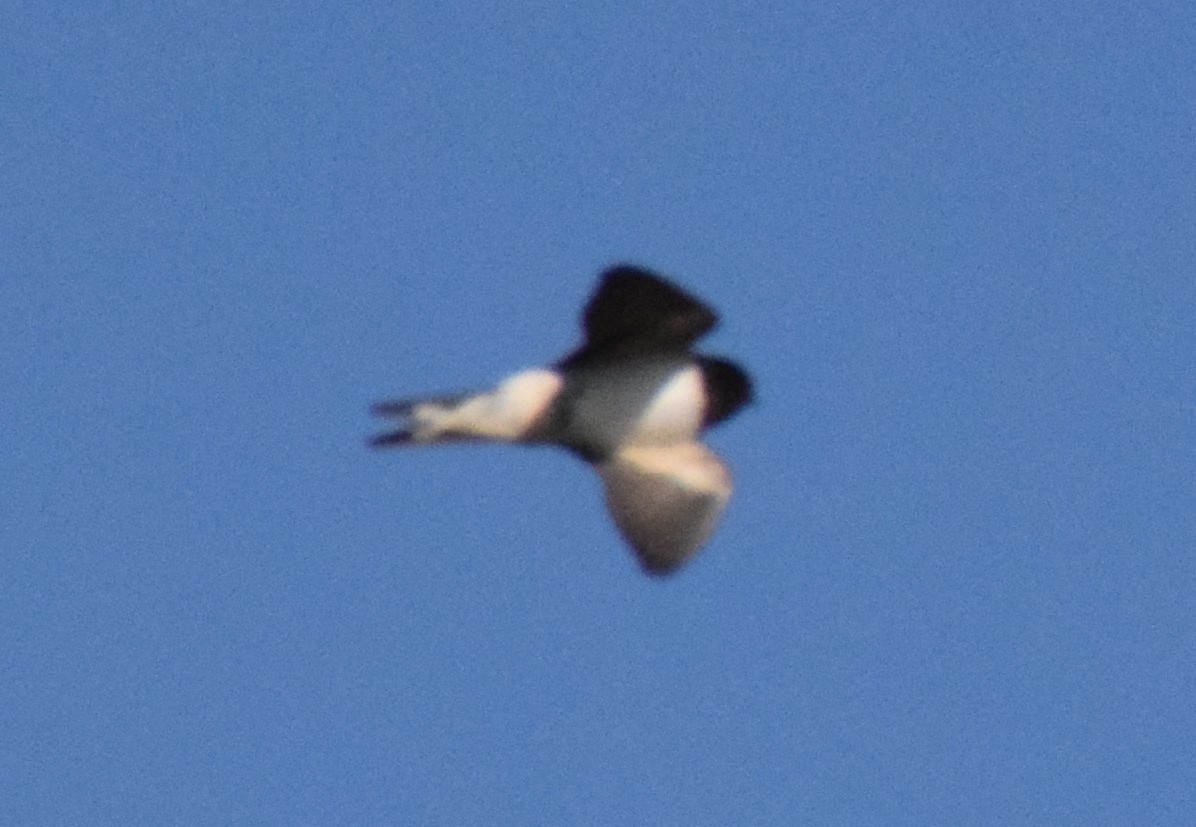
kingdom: Animalia
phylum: Chordata
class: Aves
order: Passeriformes
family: Hirundinidae
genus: Hirundo
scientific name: Hirundo rustica
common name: Barn swallow
